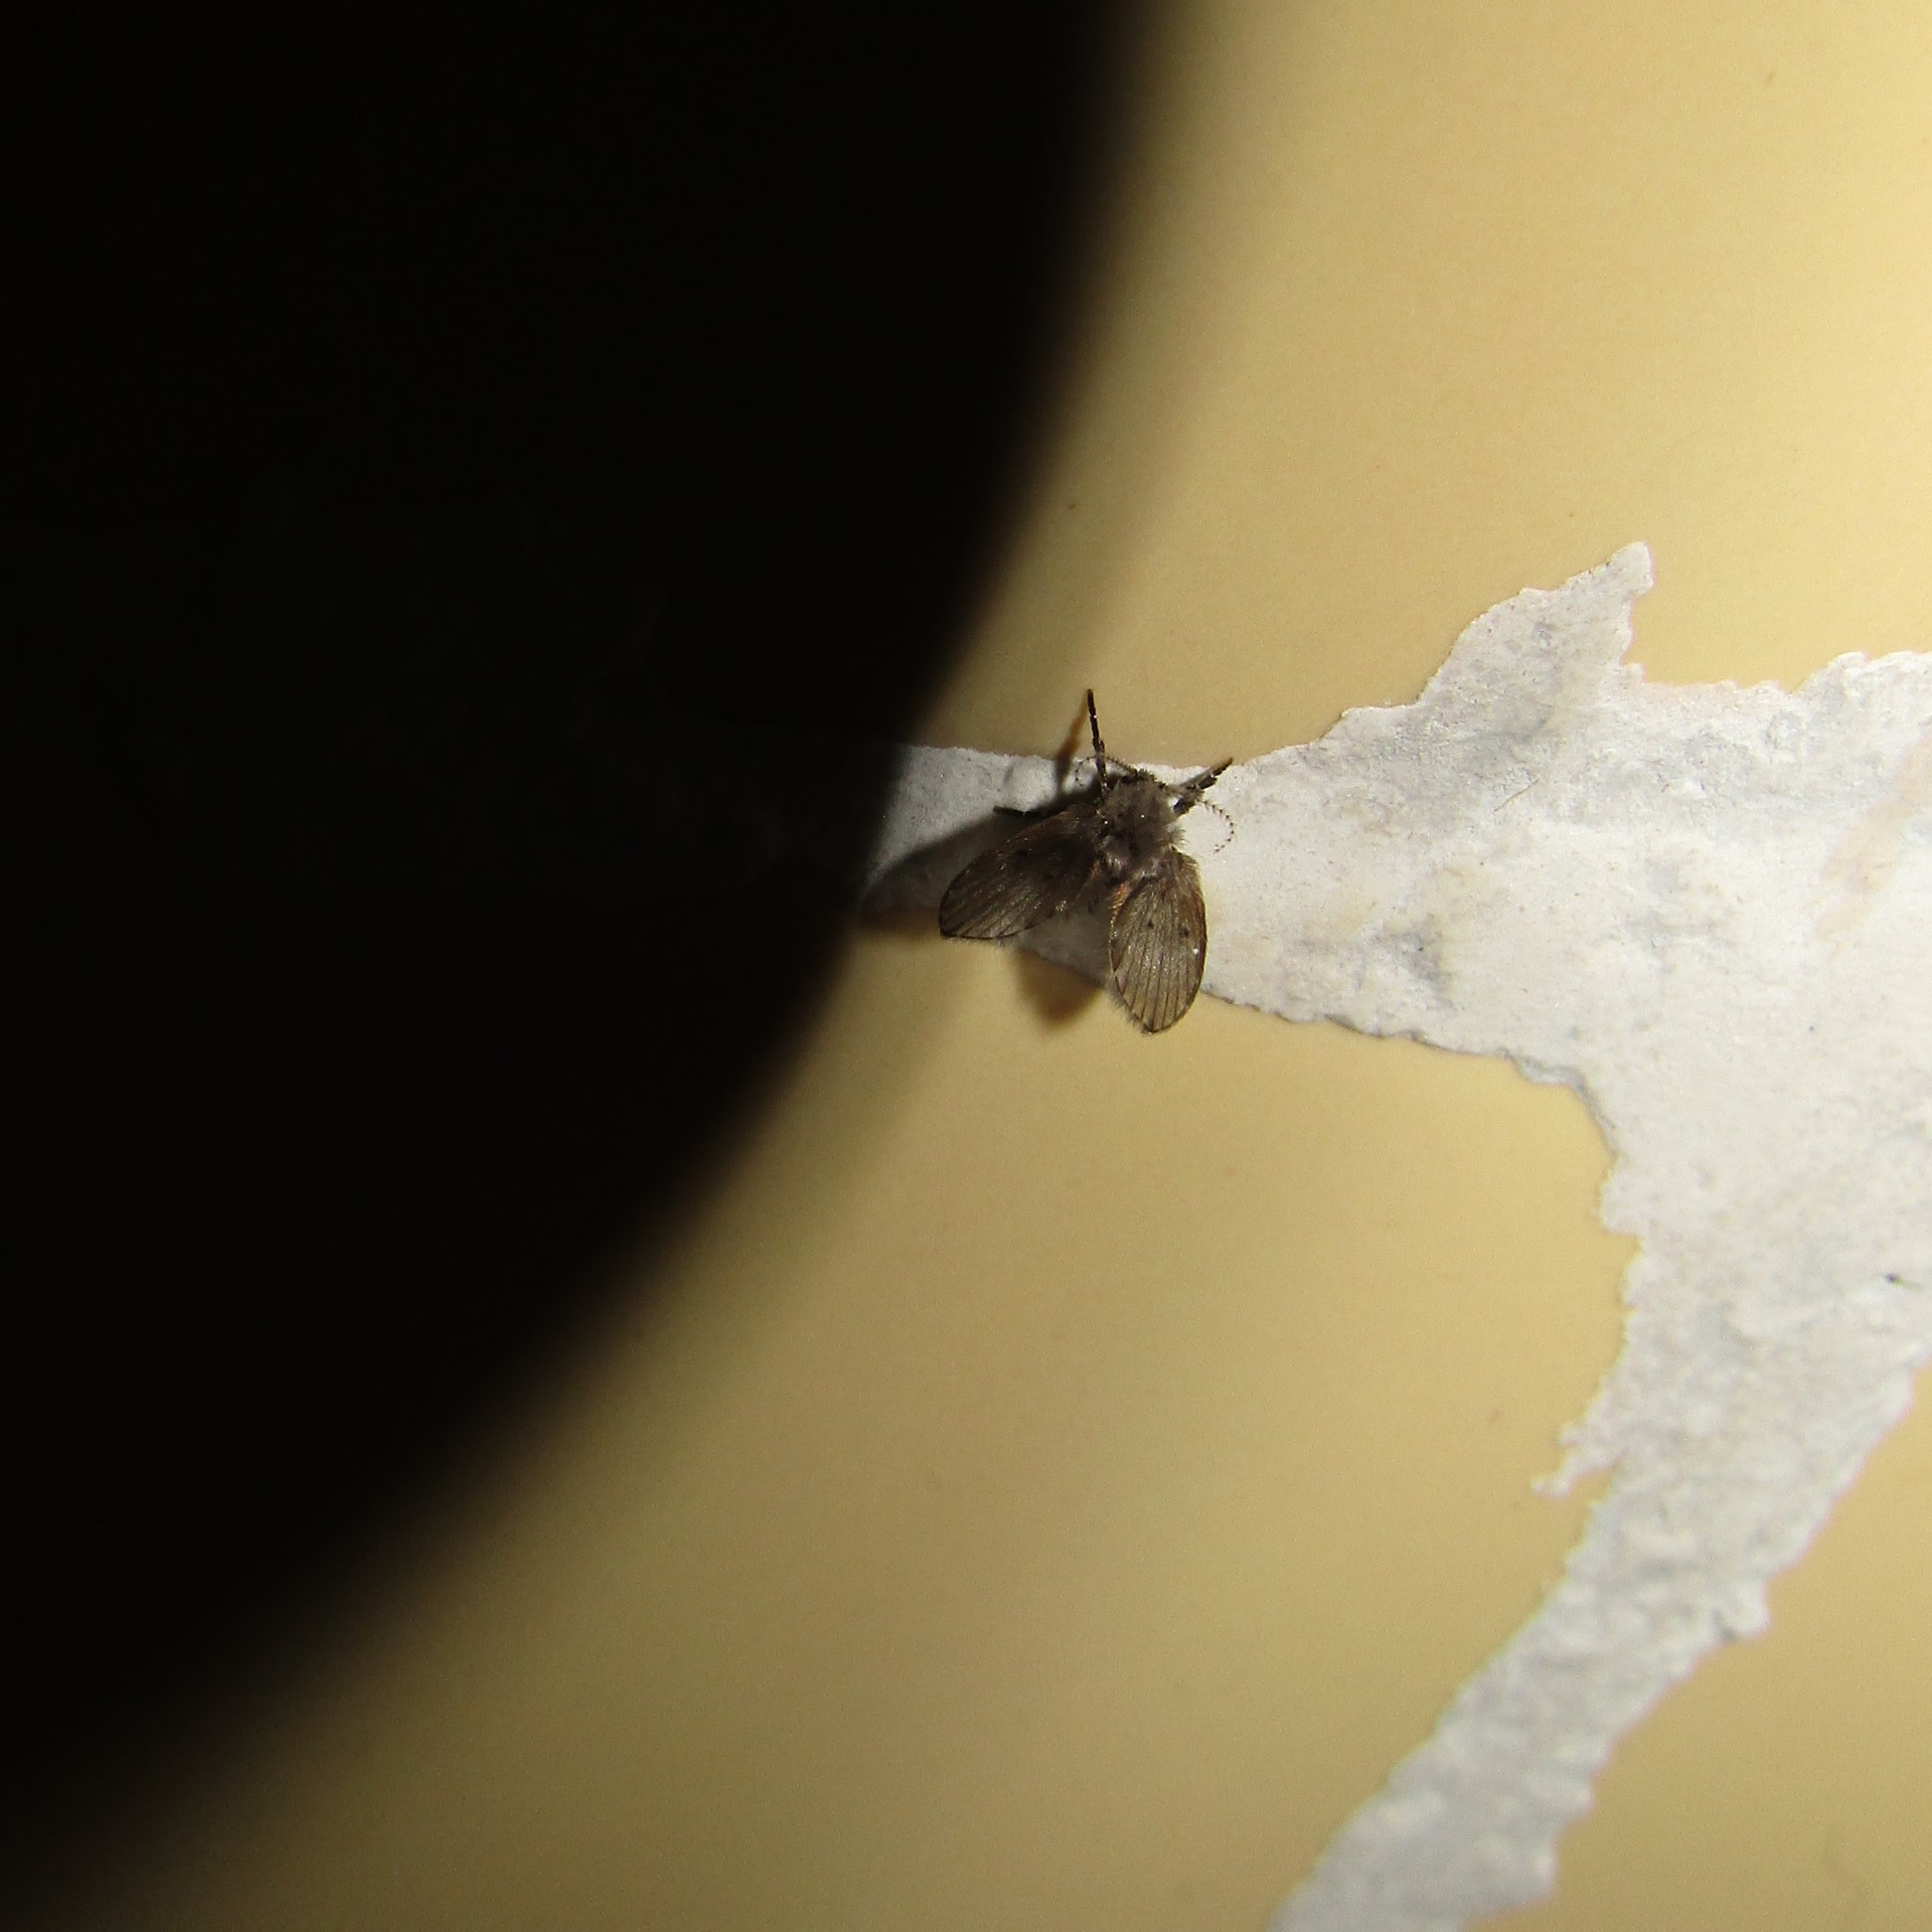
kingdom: Animalia
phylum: Arthropoda
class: Insecta
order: Diptera
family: Psychodidae
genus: Clogmia
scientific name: Clogmia albipunctatus
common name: White-spotted moth fly
